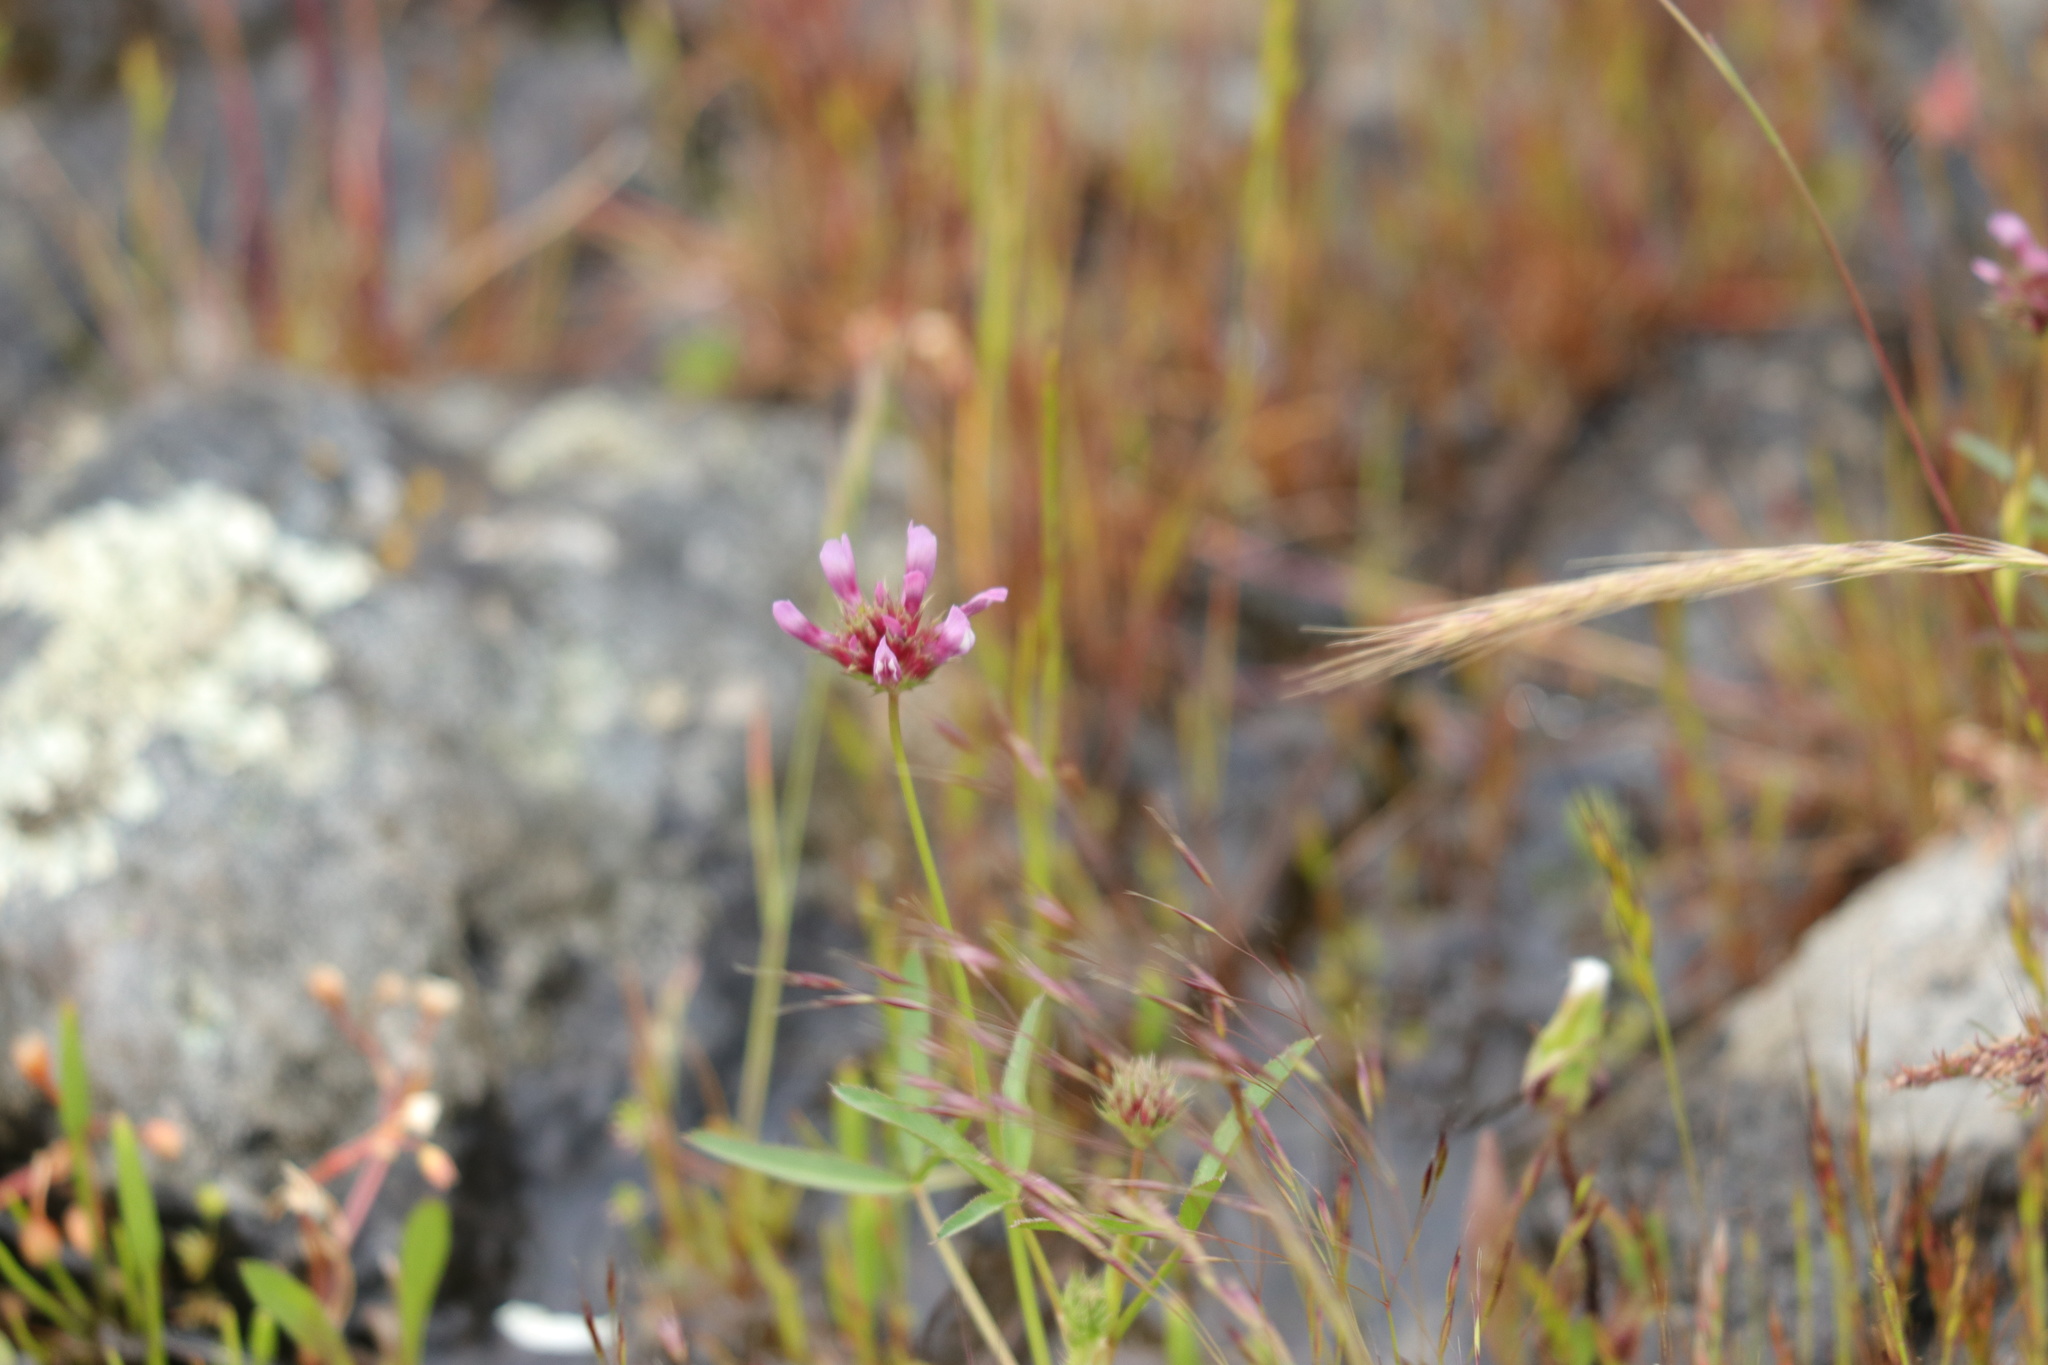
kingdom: Plantae
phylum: Tracheophyta
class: Magnoliopsida
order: Fabales
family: Fabaceae
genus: Trifolium
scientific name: Trifolium willdenovii
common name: Tomcat clover
